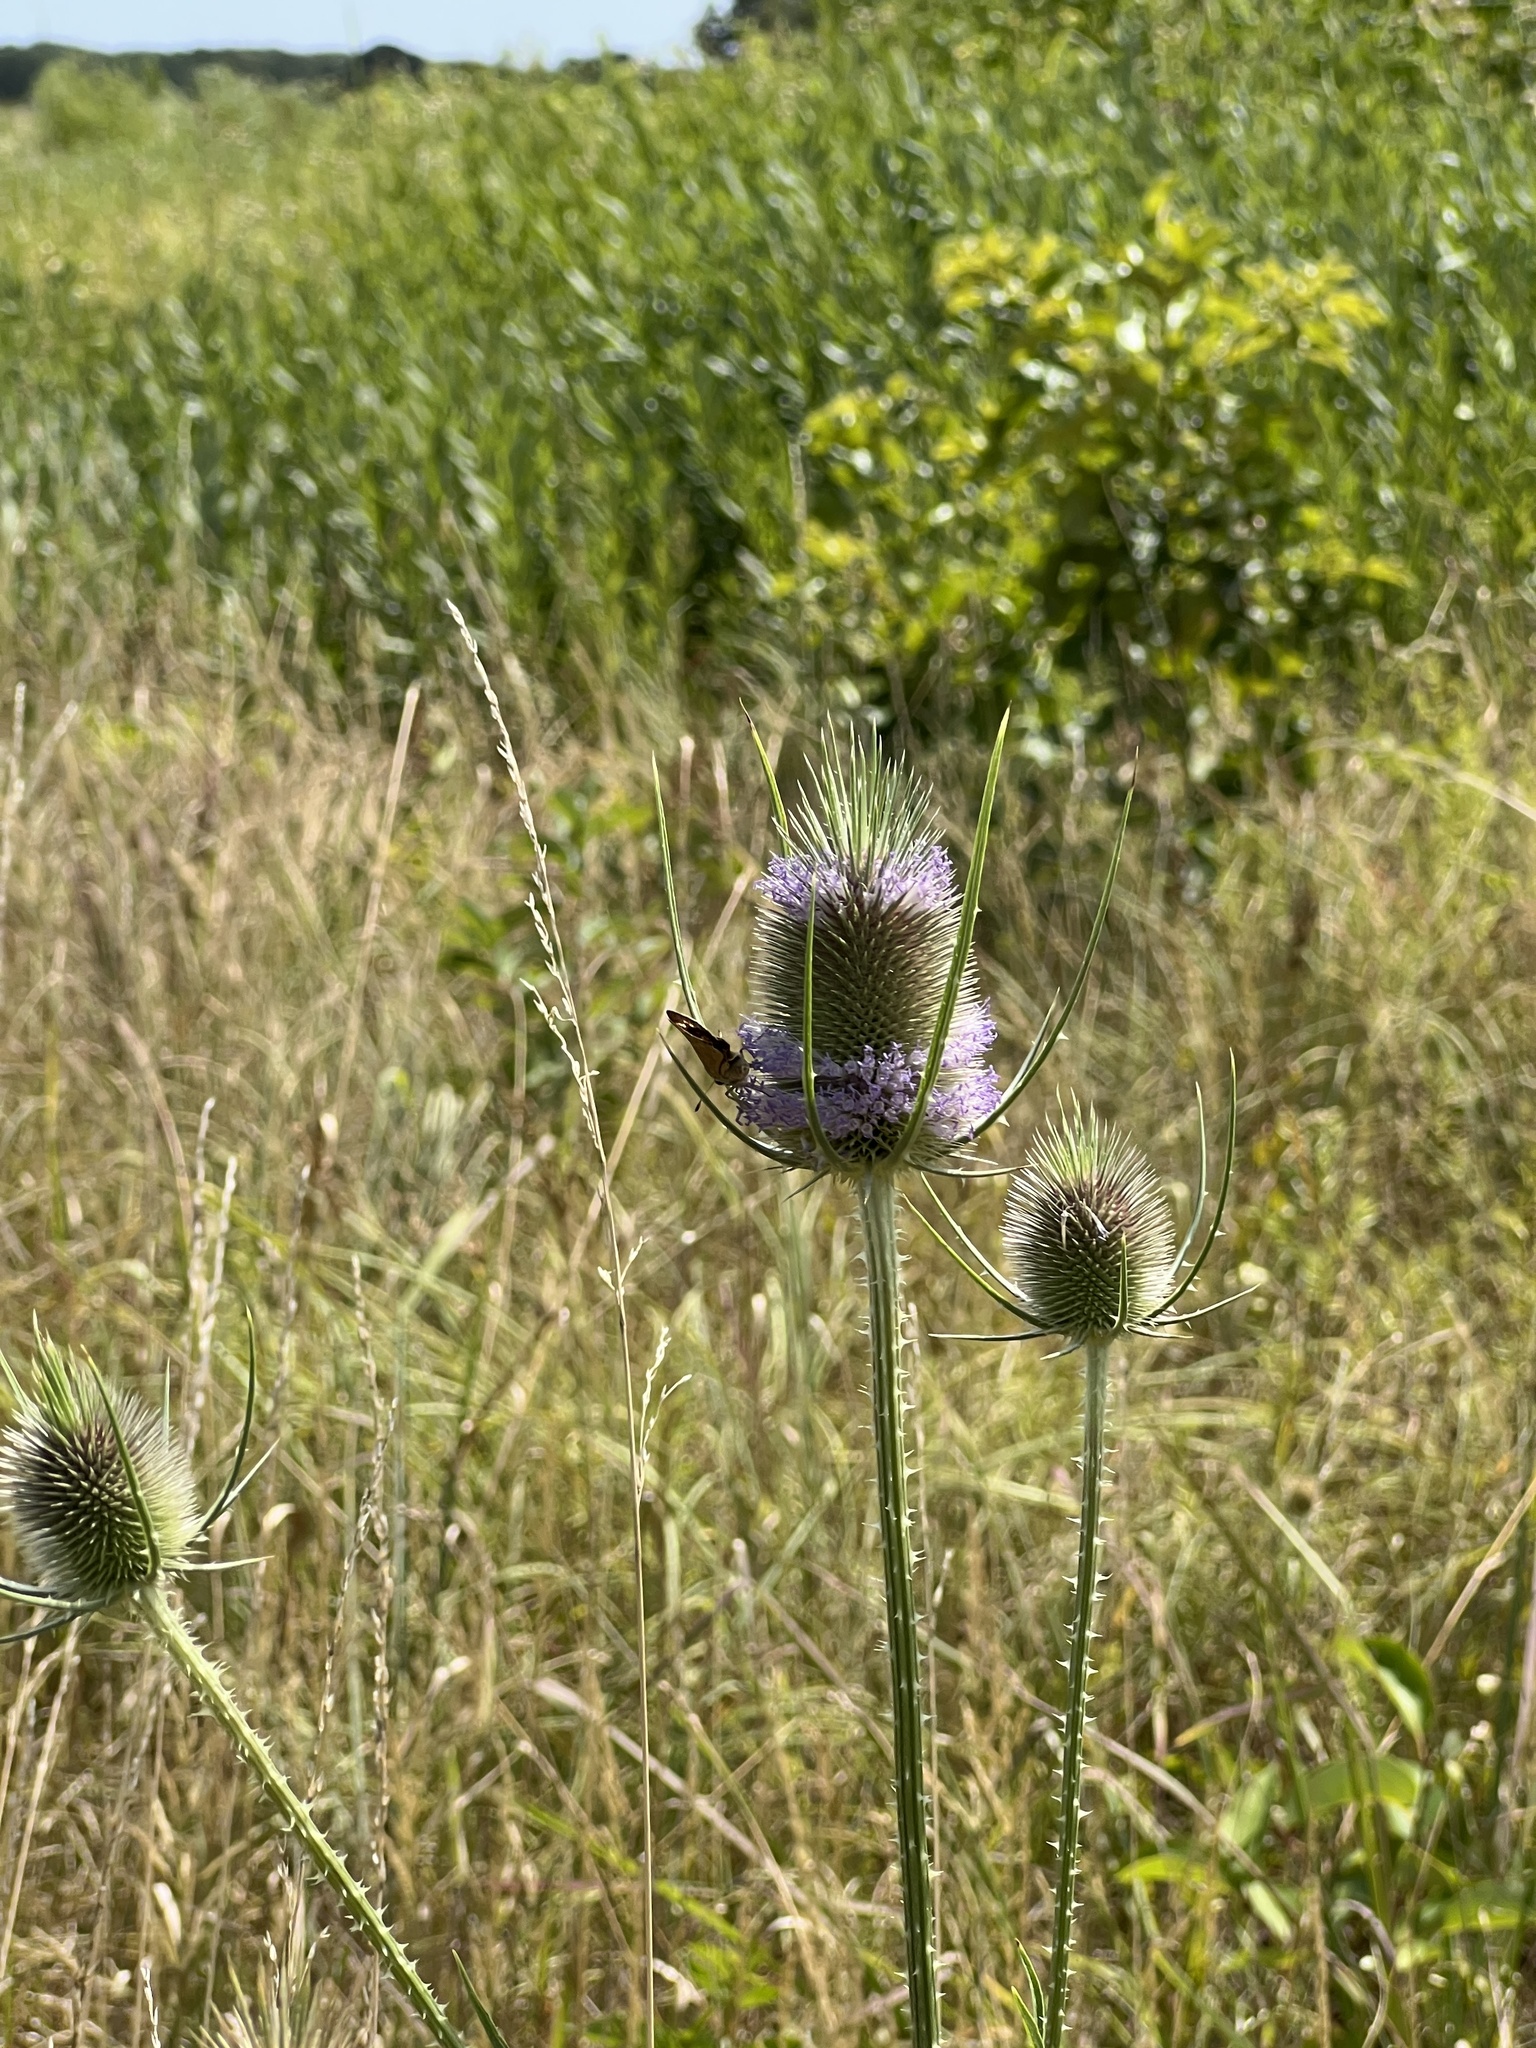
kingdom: Plantae
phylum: Tracheophyta
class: Magnoliopsida
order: Dipsacales
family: Caprifoliaceae
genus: Dipsacus
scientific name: Dipsacus fullonum
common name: Teasel
